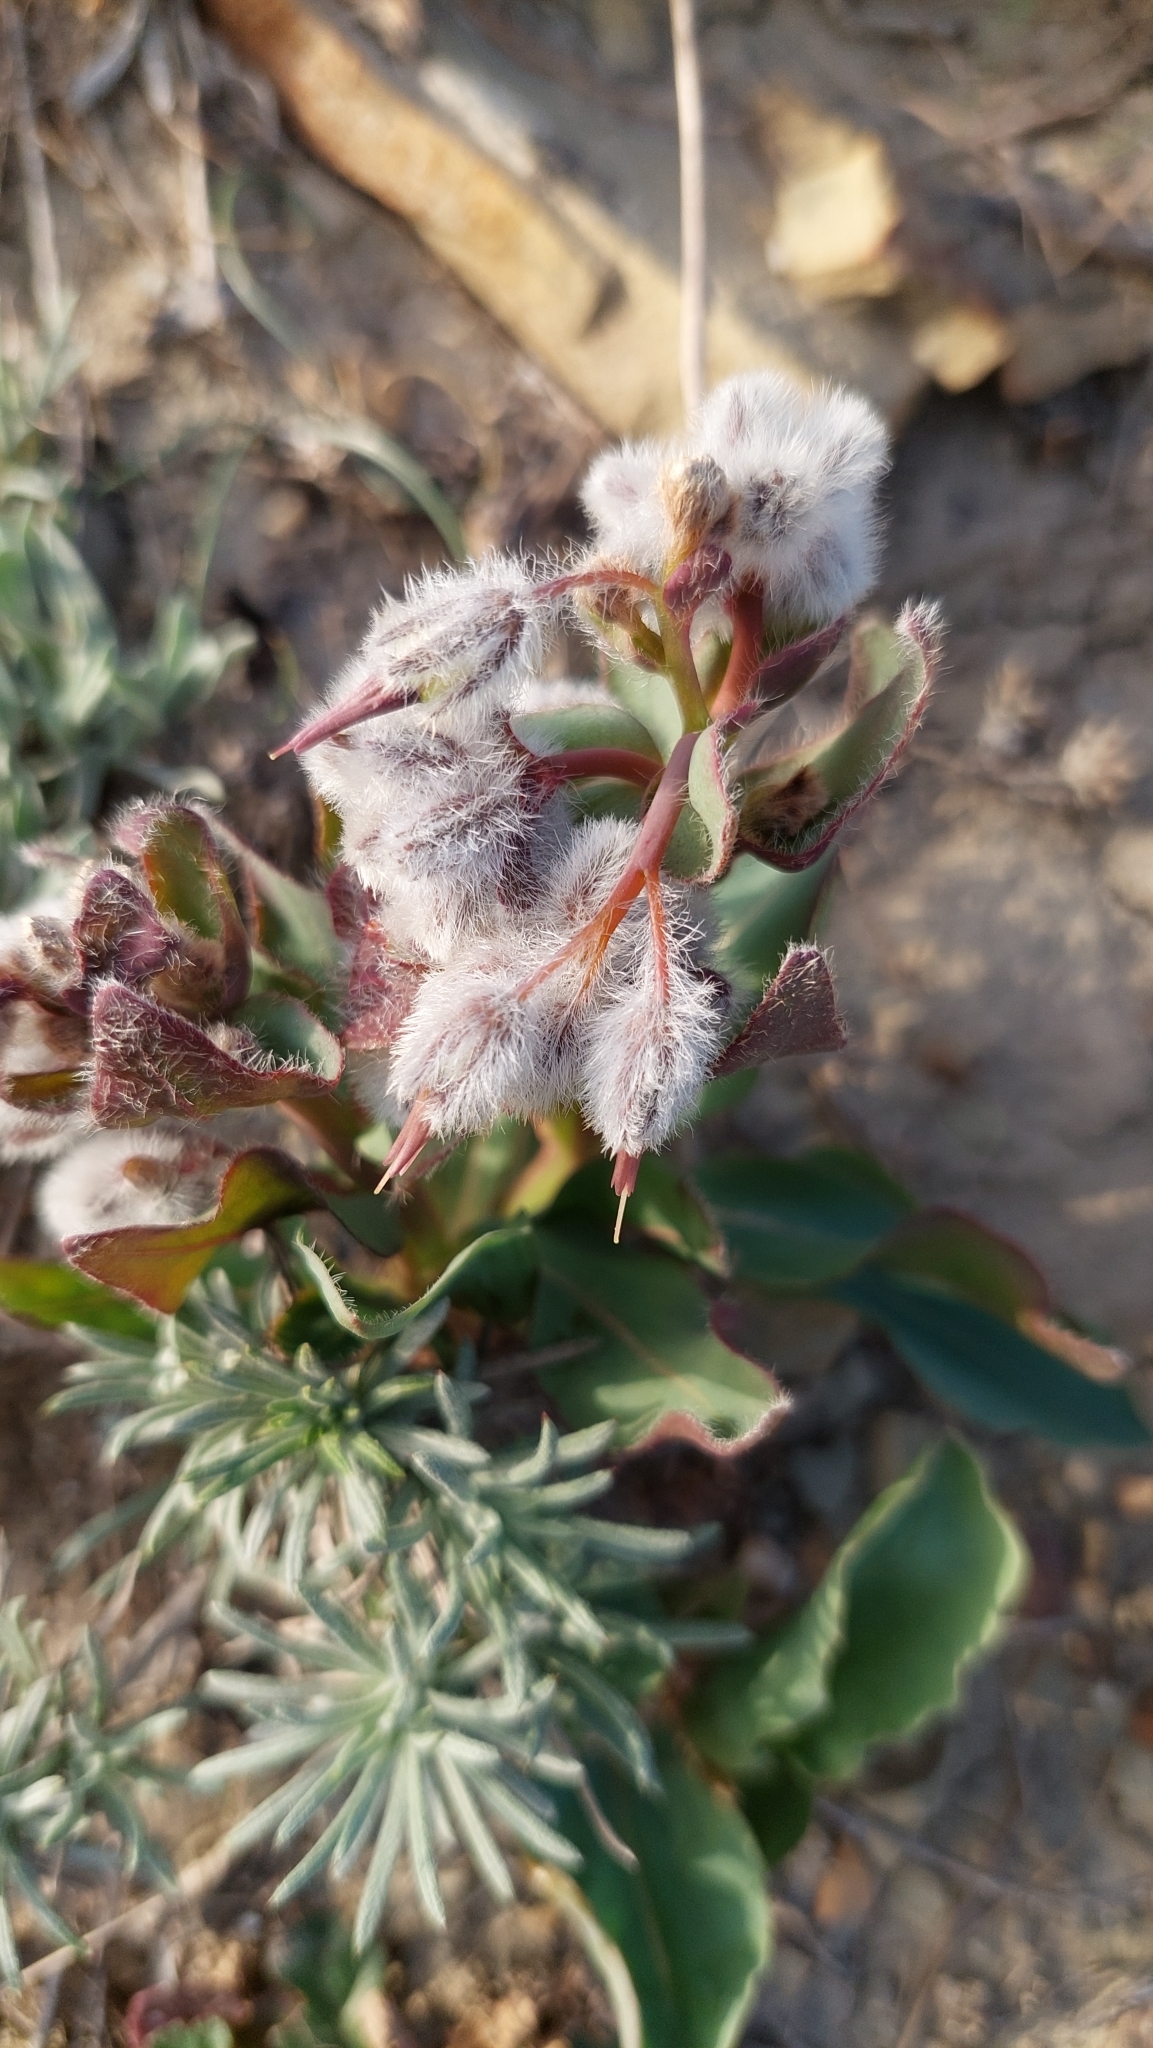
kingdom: Plantae
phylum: Tracheophyta
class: Magnoliopsida
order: Boraginales
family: Boraginaceae
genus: Rindera
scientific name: Rindera tetraspis
